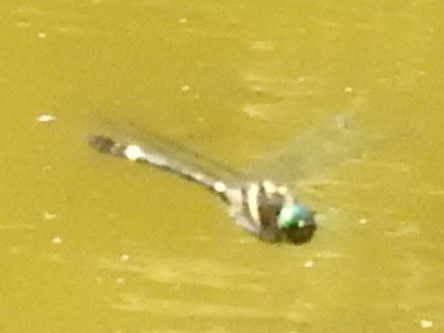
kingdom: Animalia
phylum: Arthropoda
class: Insecta
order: Odonata
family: Macromiidae
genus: Macromia
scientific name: Macromia illinoiensis
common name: Swift river cruiser
